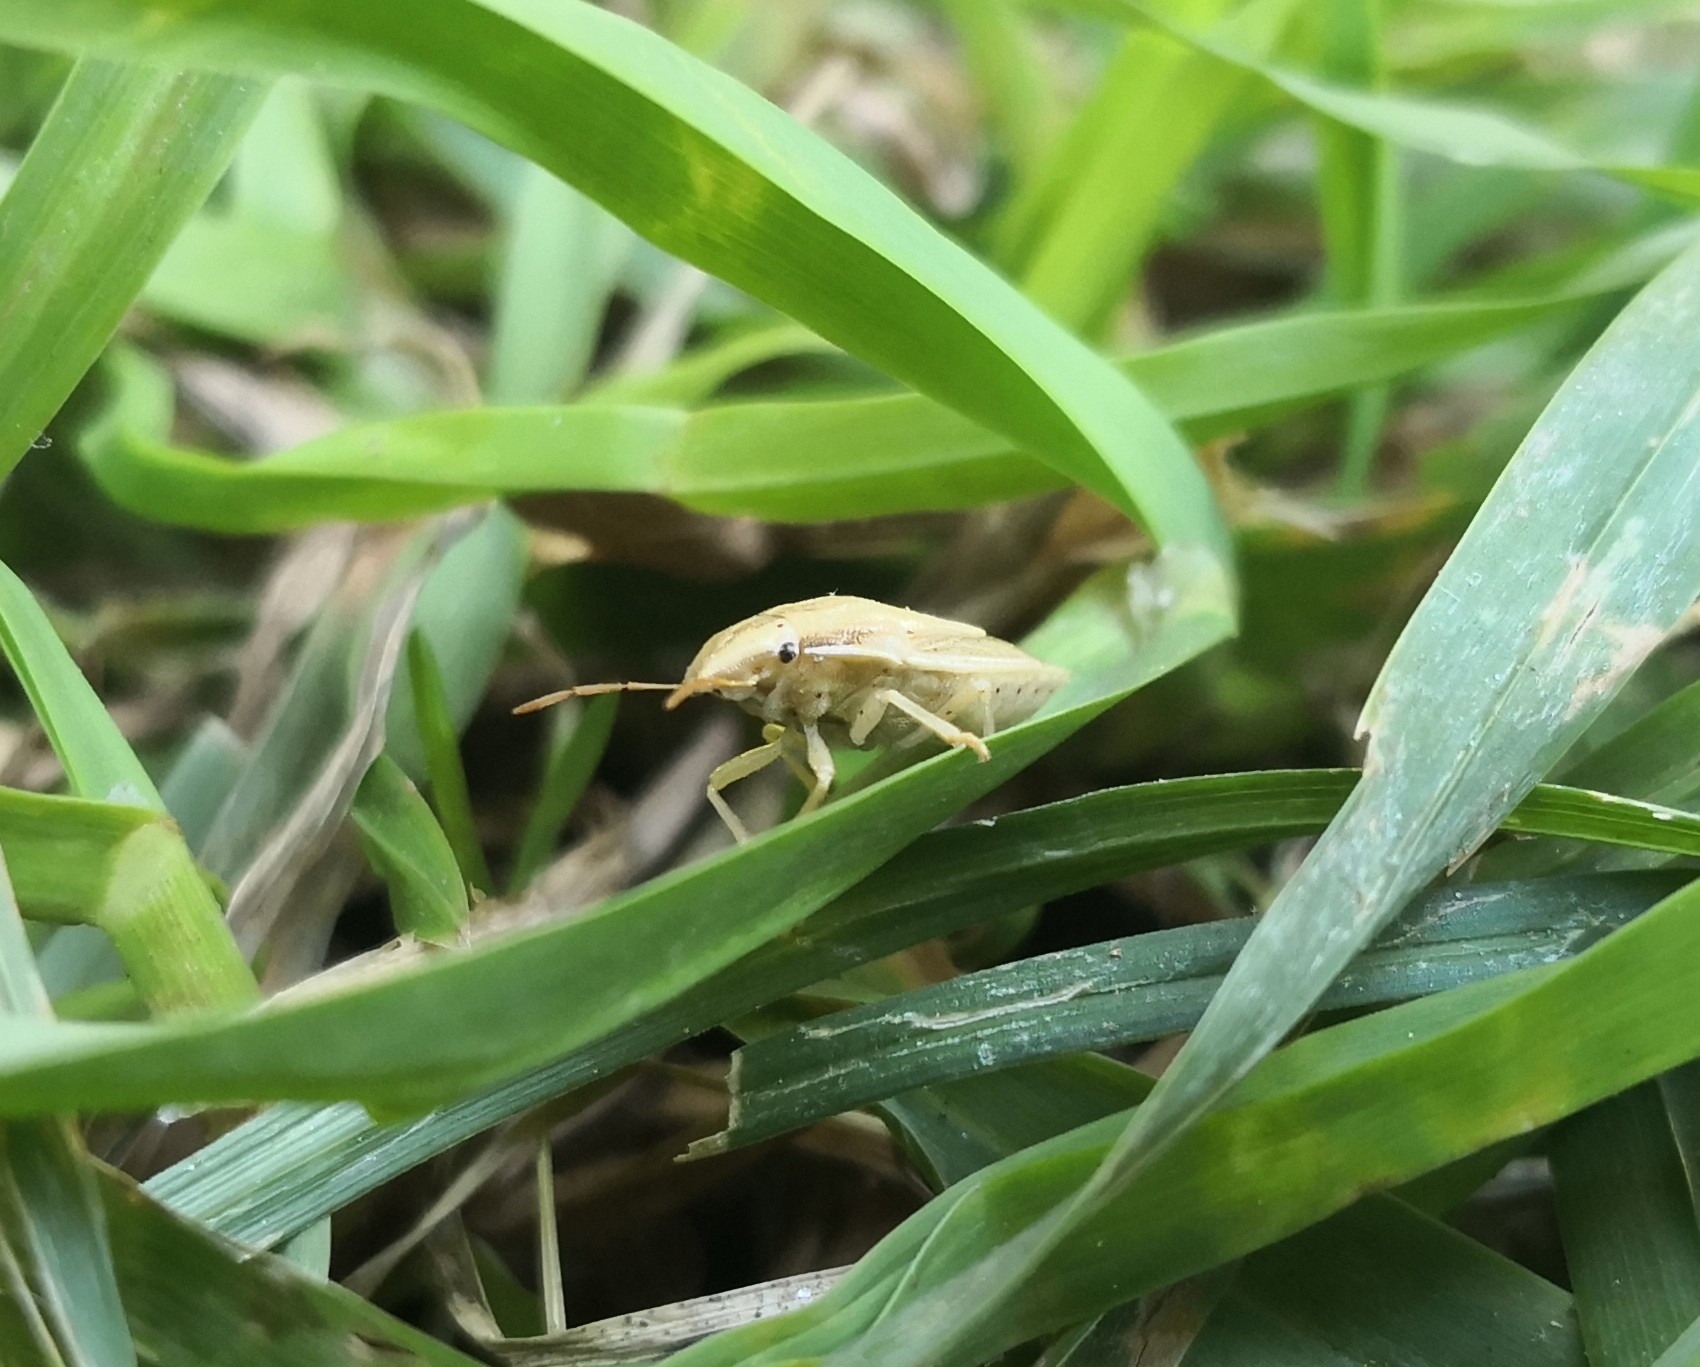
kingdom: Animalia
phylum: Arthropoda
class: Insecta
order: Hemiptera
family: Pentatomidae
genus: Aelia
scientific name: Aelia acuminata
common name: Bishop's mitre
